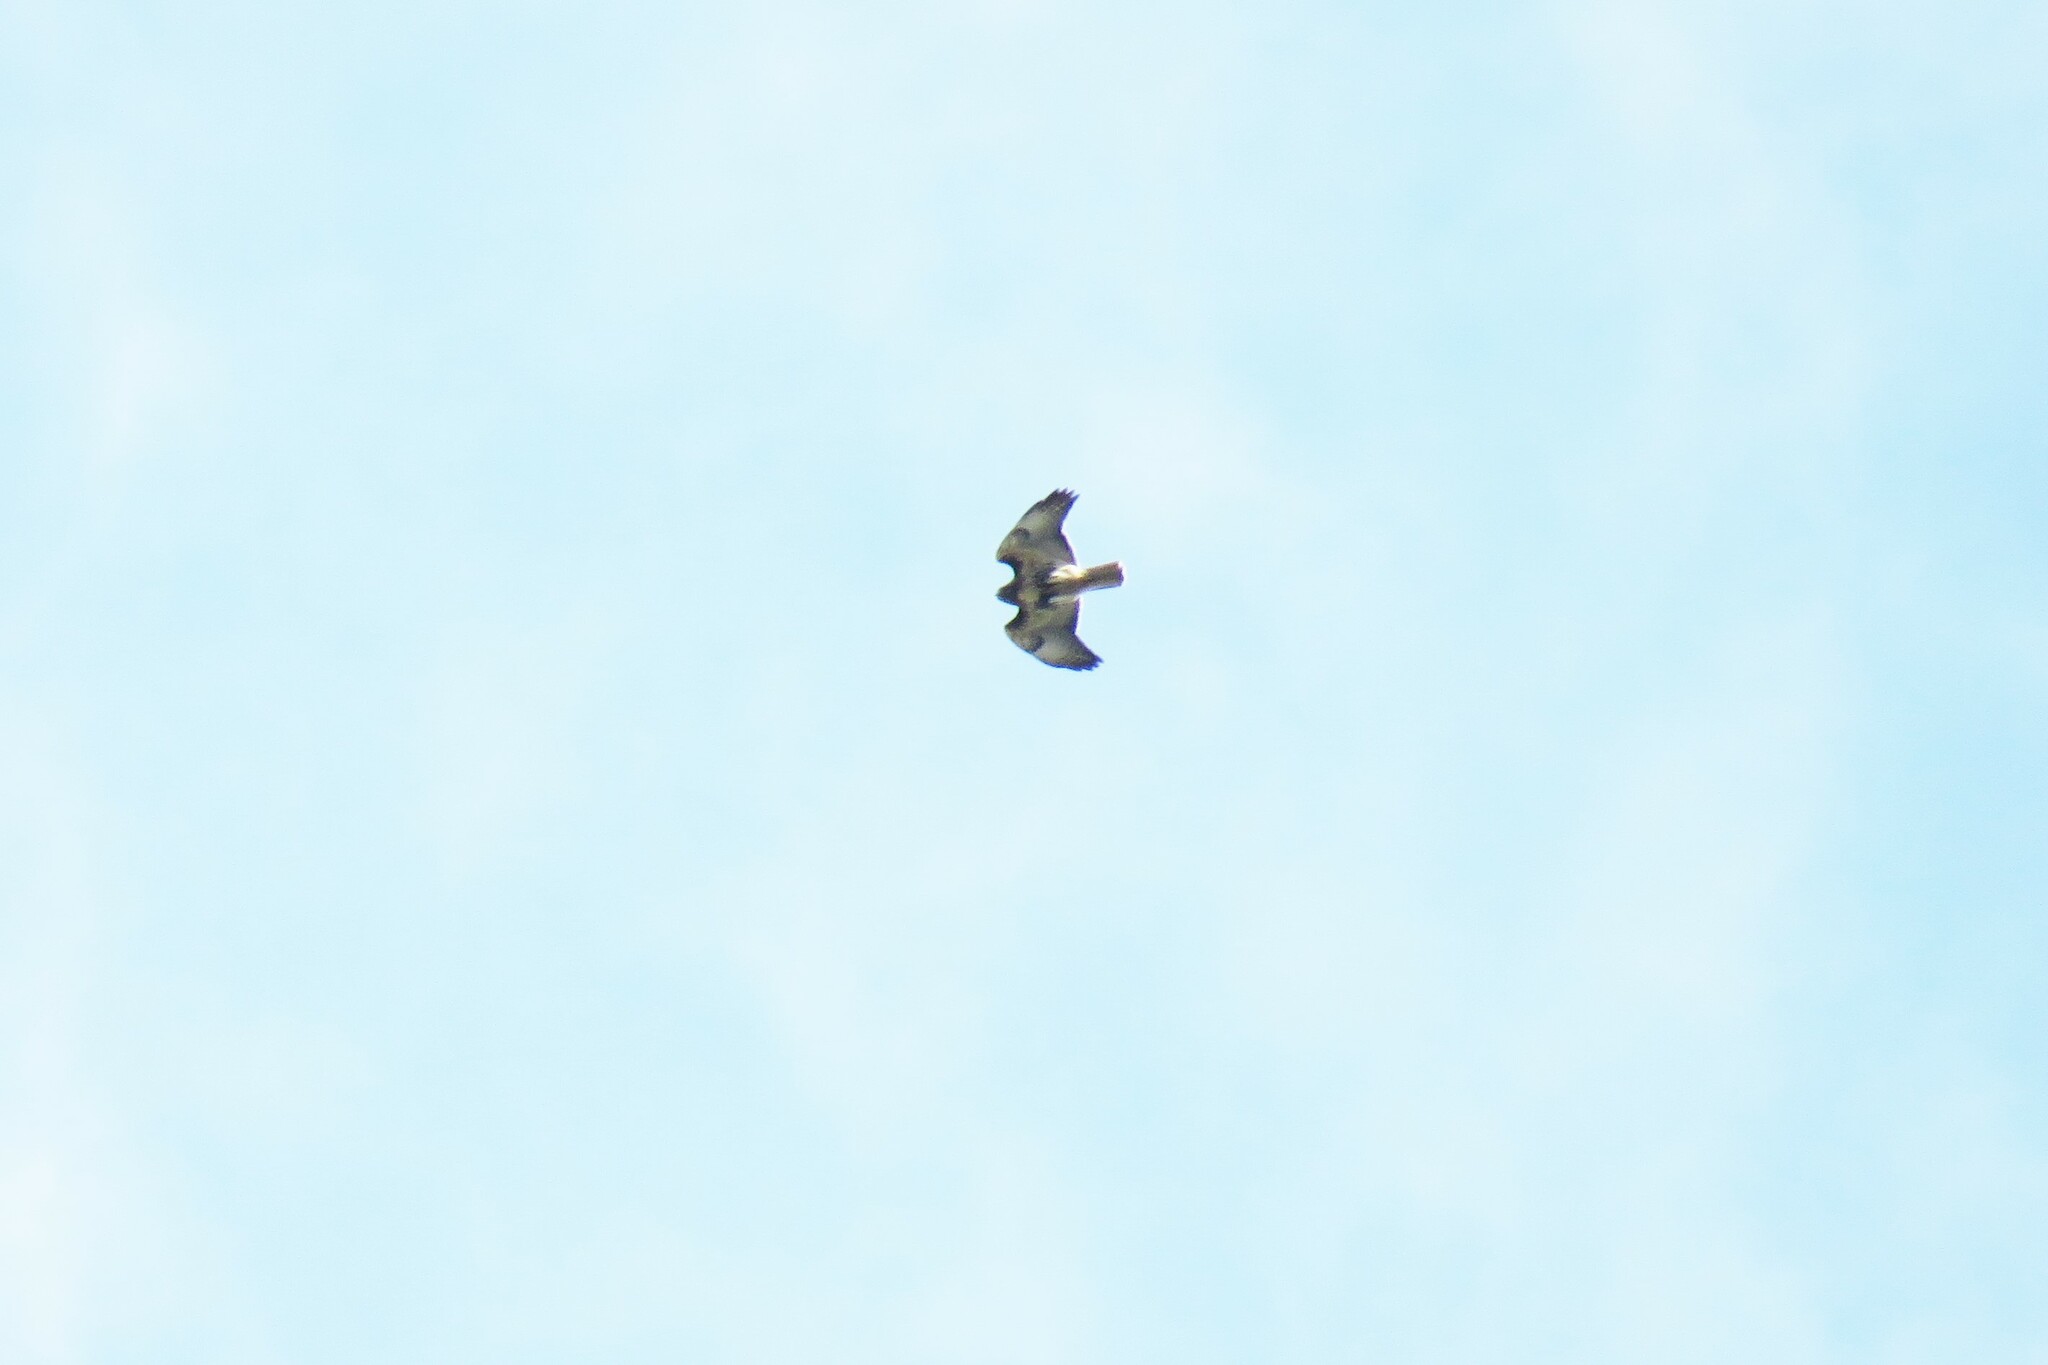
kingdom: Animalia
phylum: Chordata
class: Aves
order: Accipitriformes
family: Accipitridae
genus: Buteo
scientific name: Buteo jamaicensis
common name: Red-tailed hawk
